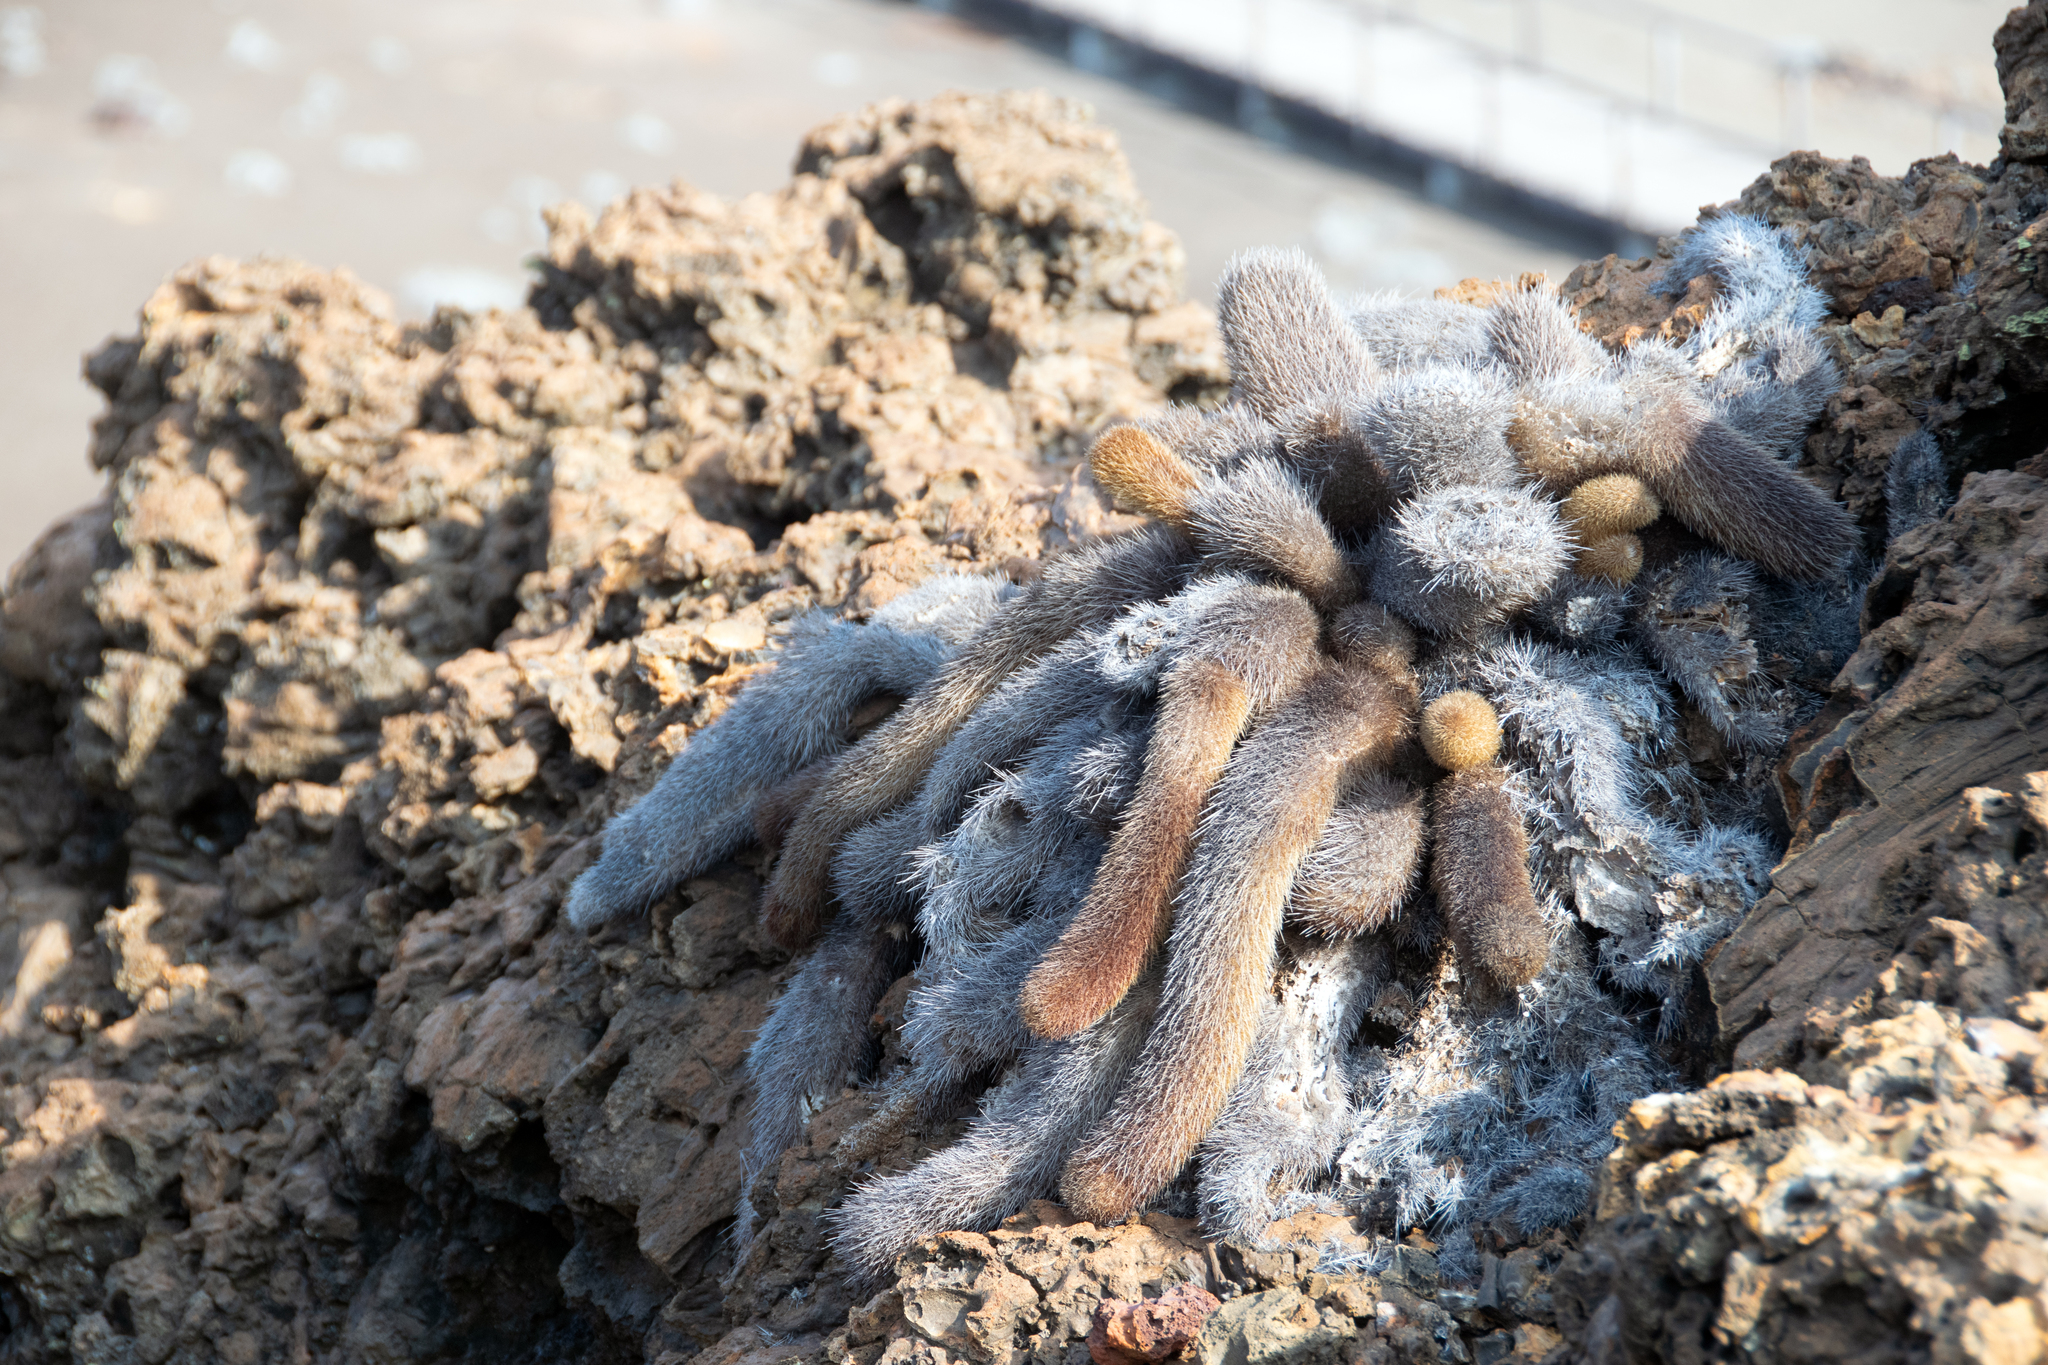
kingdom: Plantae
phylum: Tracheophyta
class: Magnoliopsida
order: Caryophyllales
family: Cactaceae
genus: Brachycereus
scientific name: Brachycereus nesioticus
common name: Lava cactus
